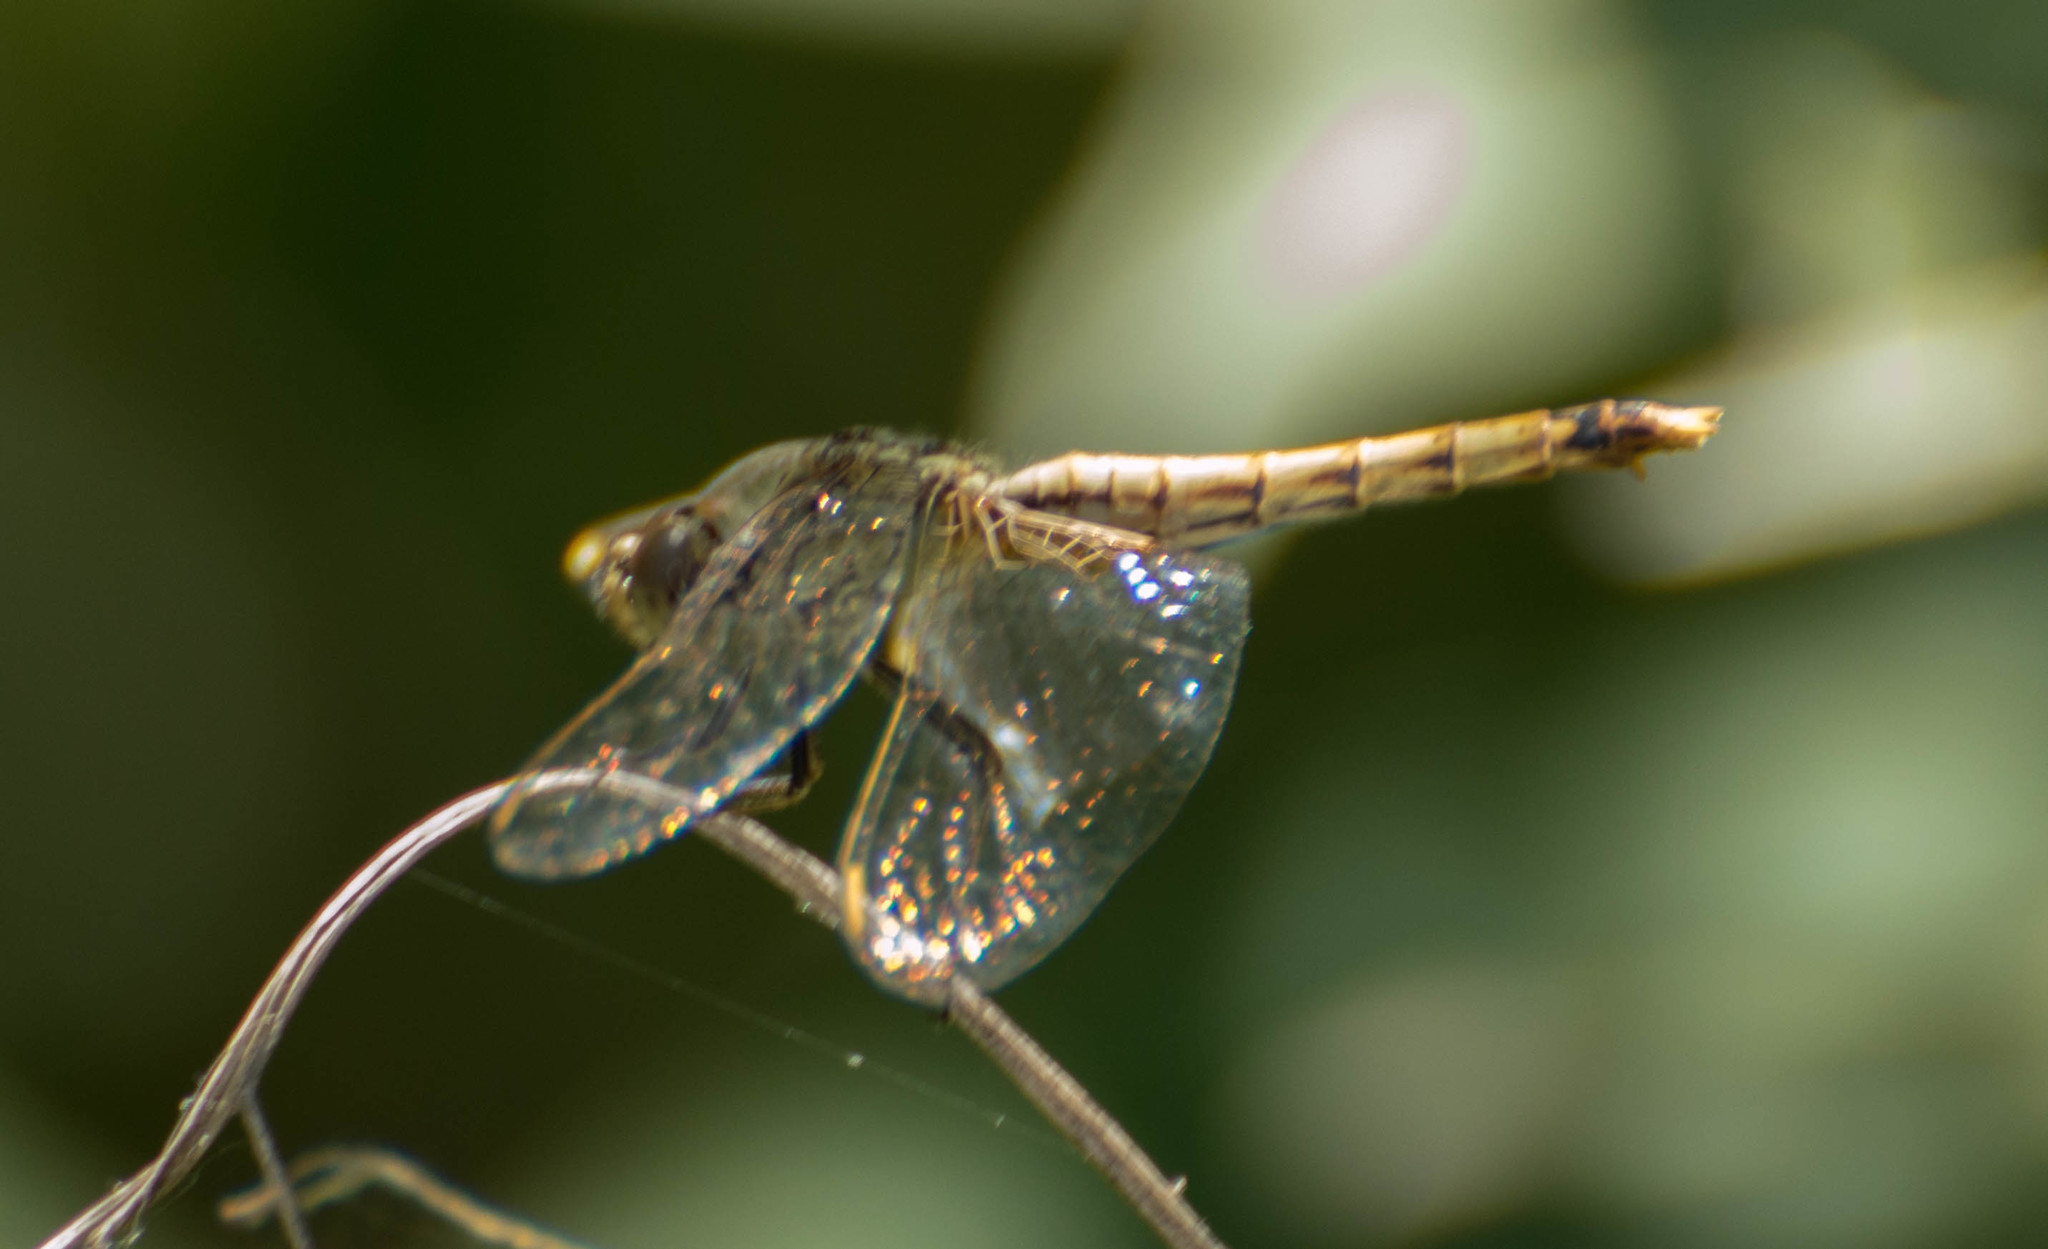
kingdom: Animalia
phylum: Arthropoda
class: Insecta
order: Odonata
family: Libellulidae
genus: Erythrodiplax
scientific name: Erythrodiplax corallina
